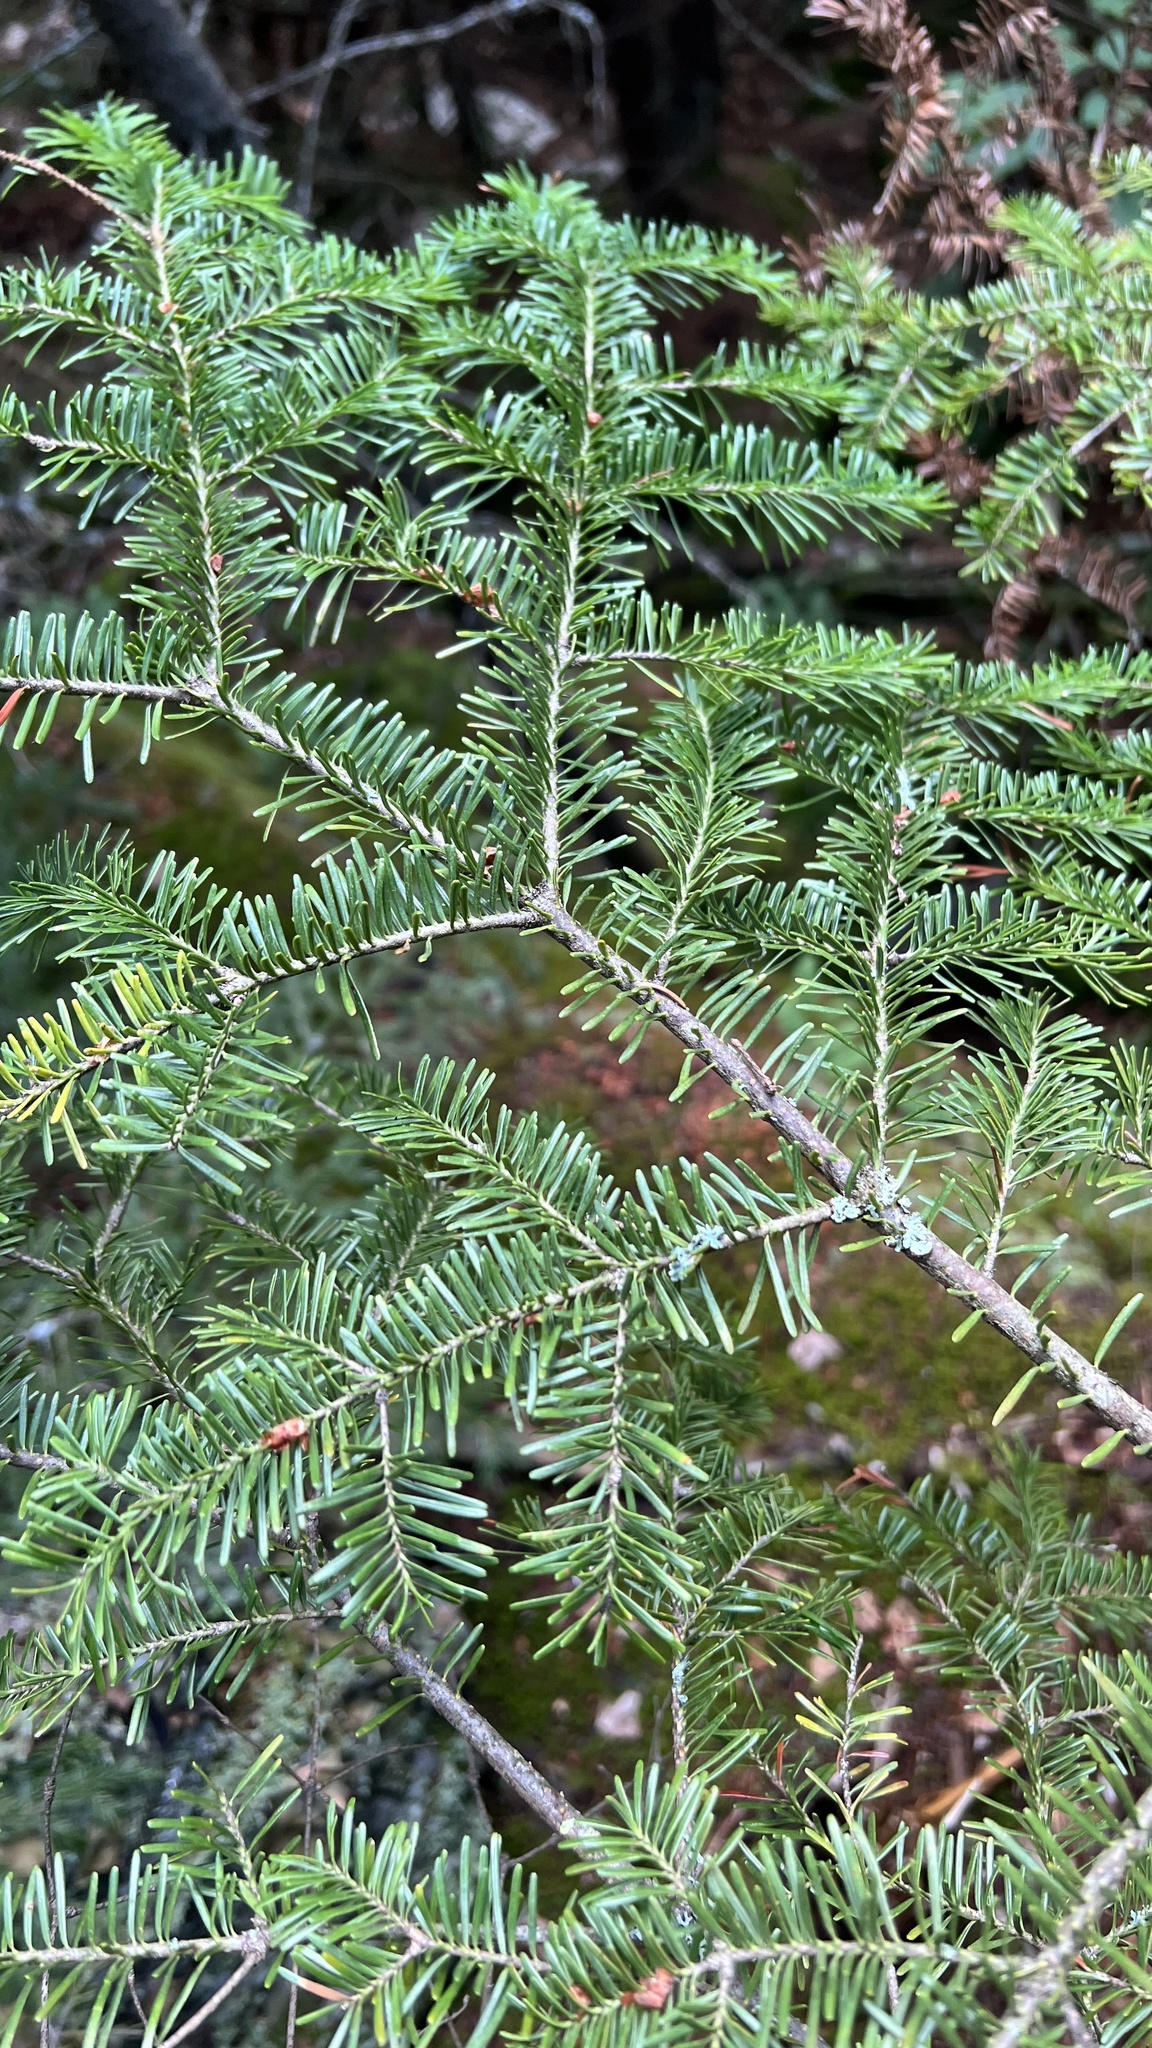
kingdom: Plantae
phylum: Tracheophyta
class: Pinopsida
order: Pinales
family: Pinaceae
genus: Abies
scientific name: Abies balsamea
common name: Balsam fir
